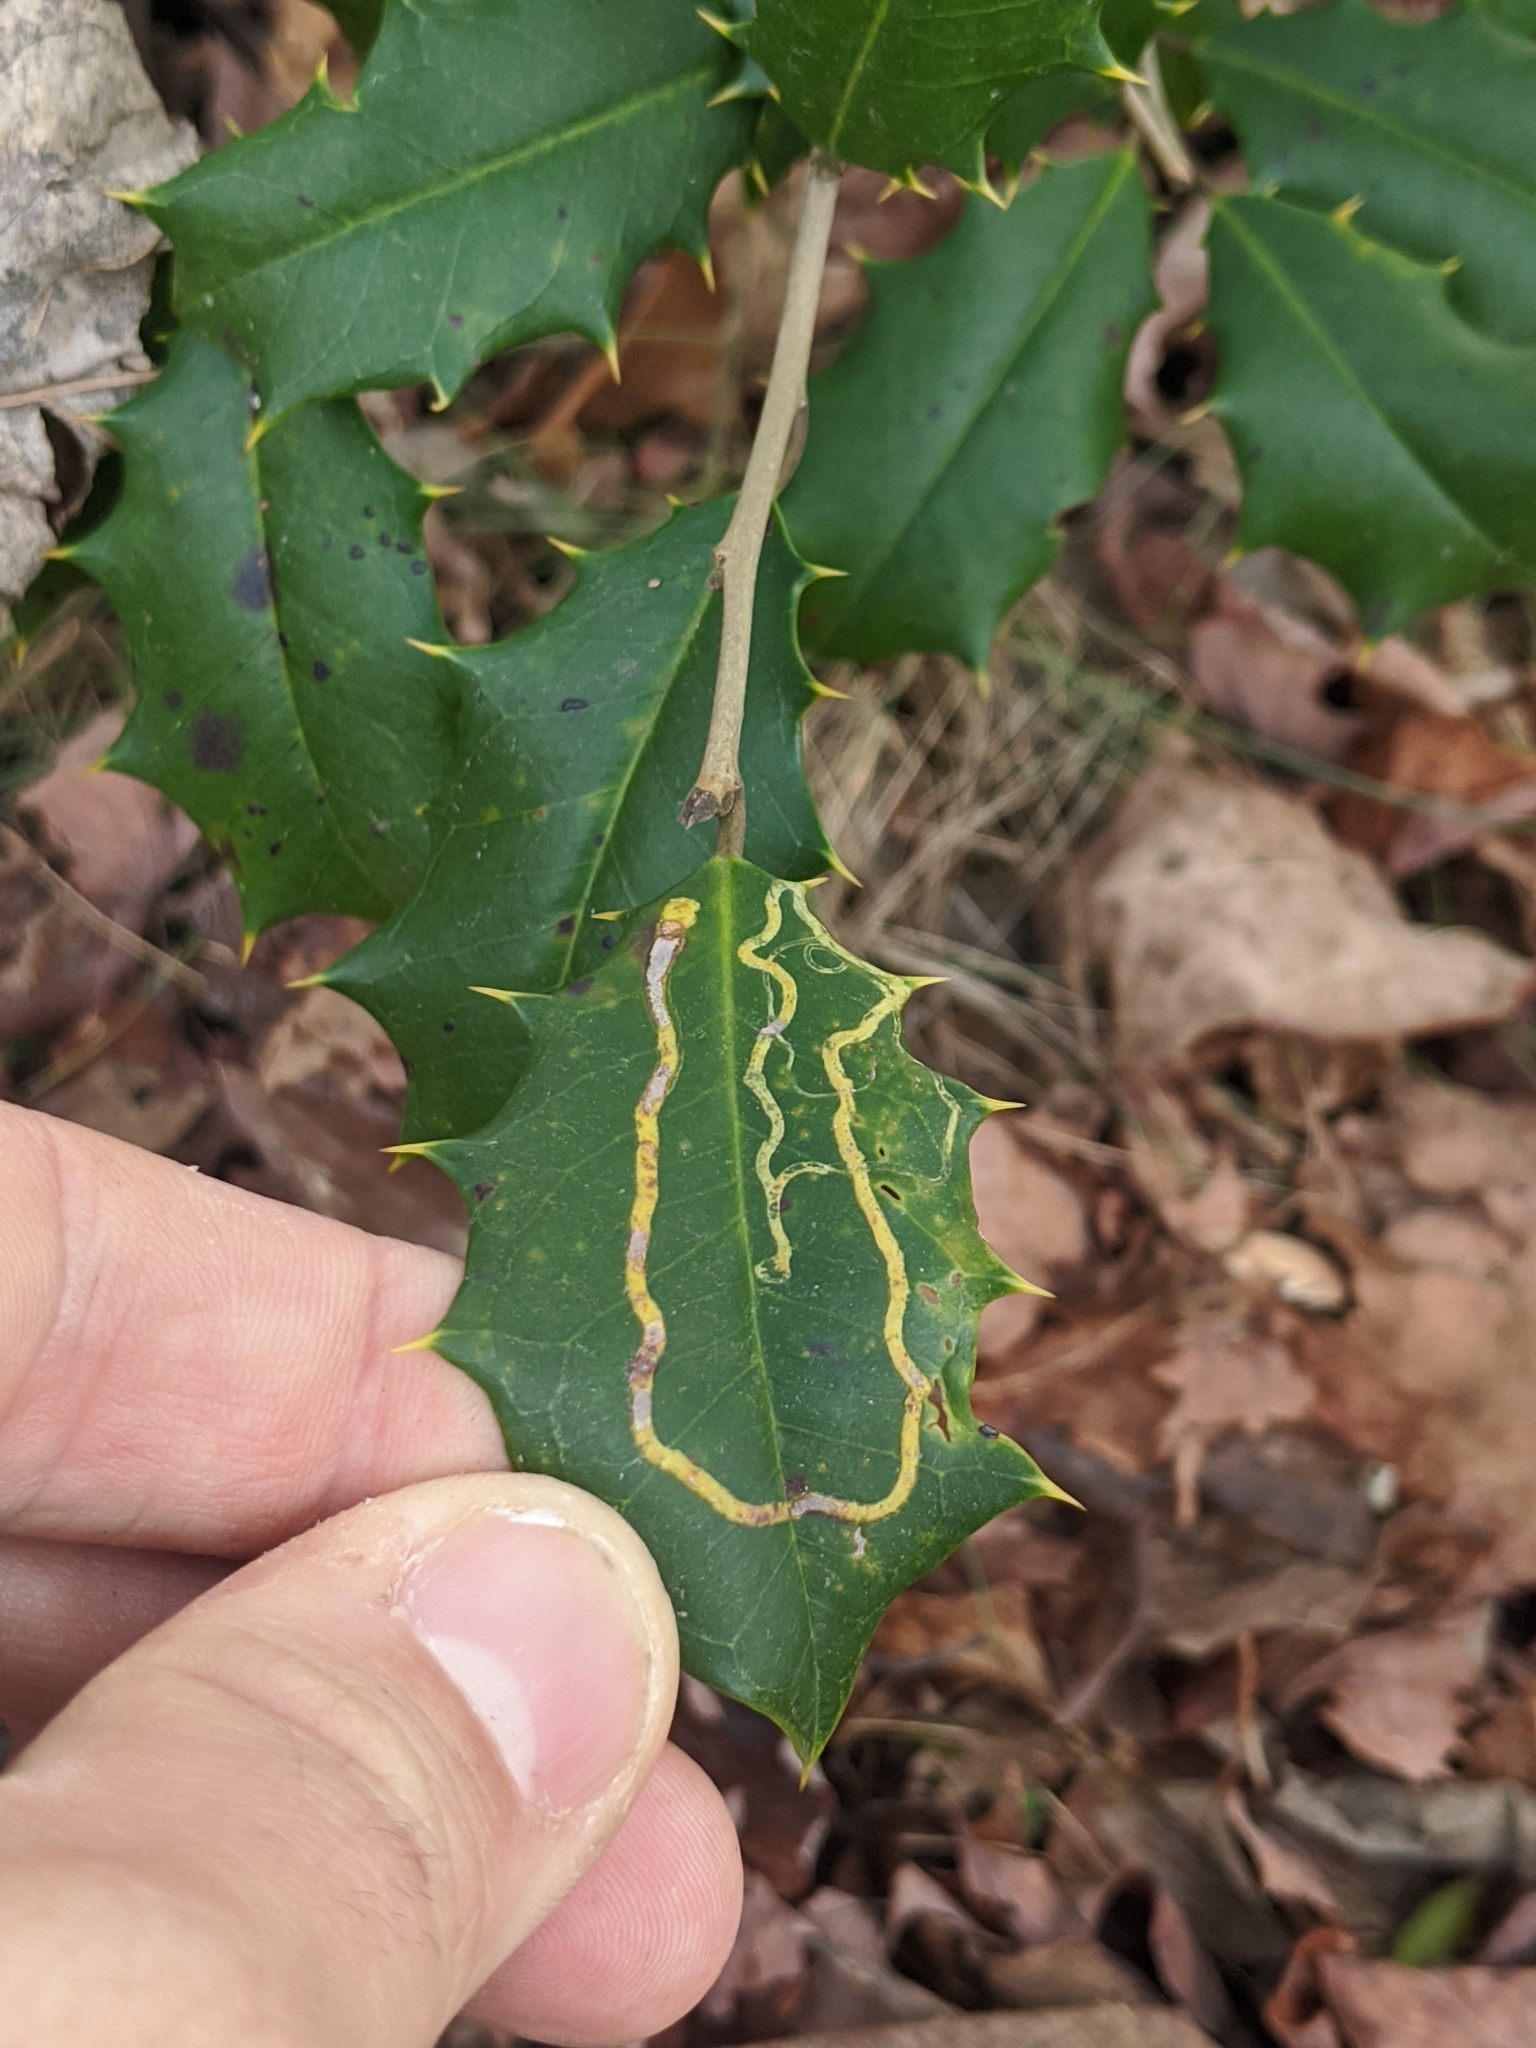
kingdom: Animalia
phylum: Arthropoda
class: Insecta
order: Diptera
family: Agromyzidae
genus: Phytomyza
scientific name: Phytomyza opacae
